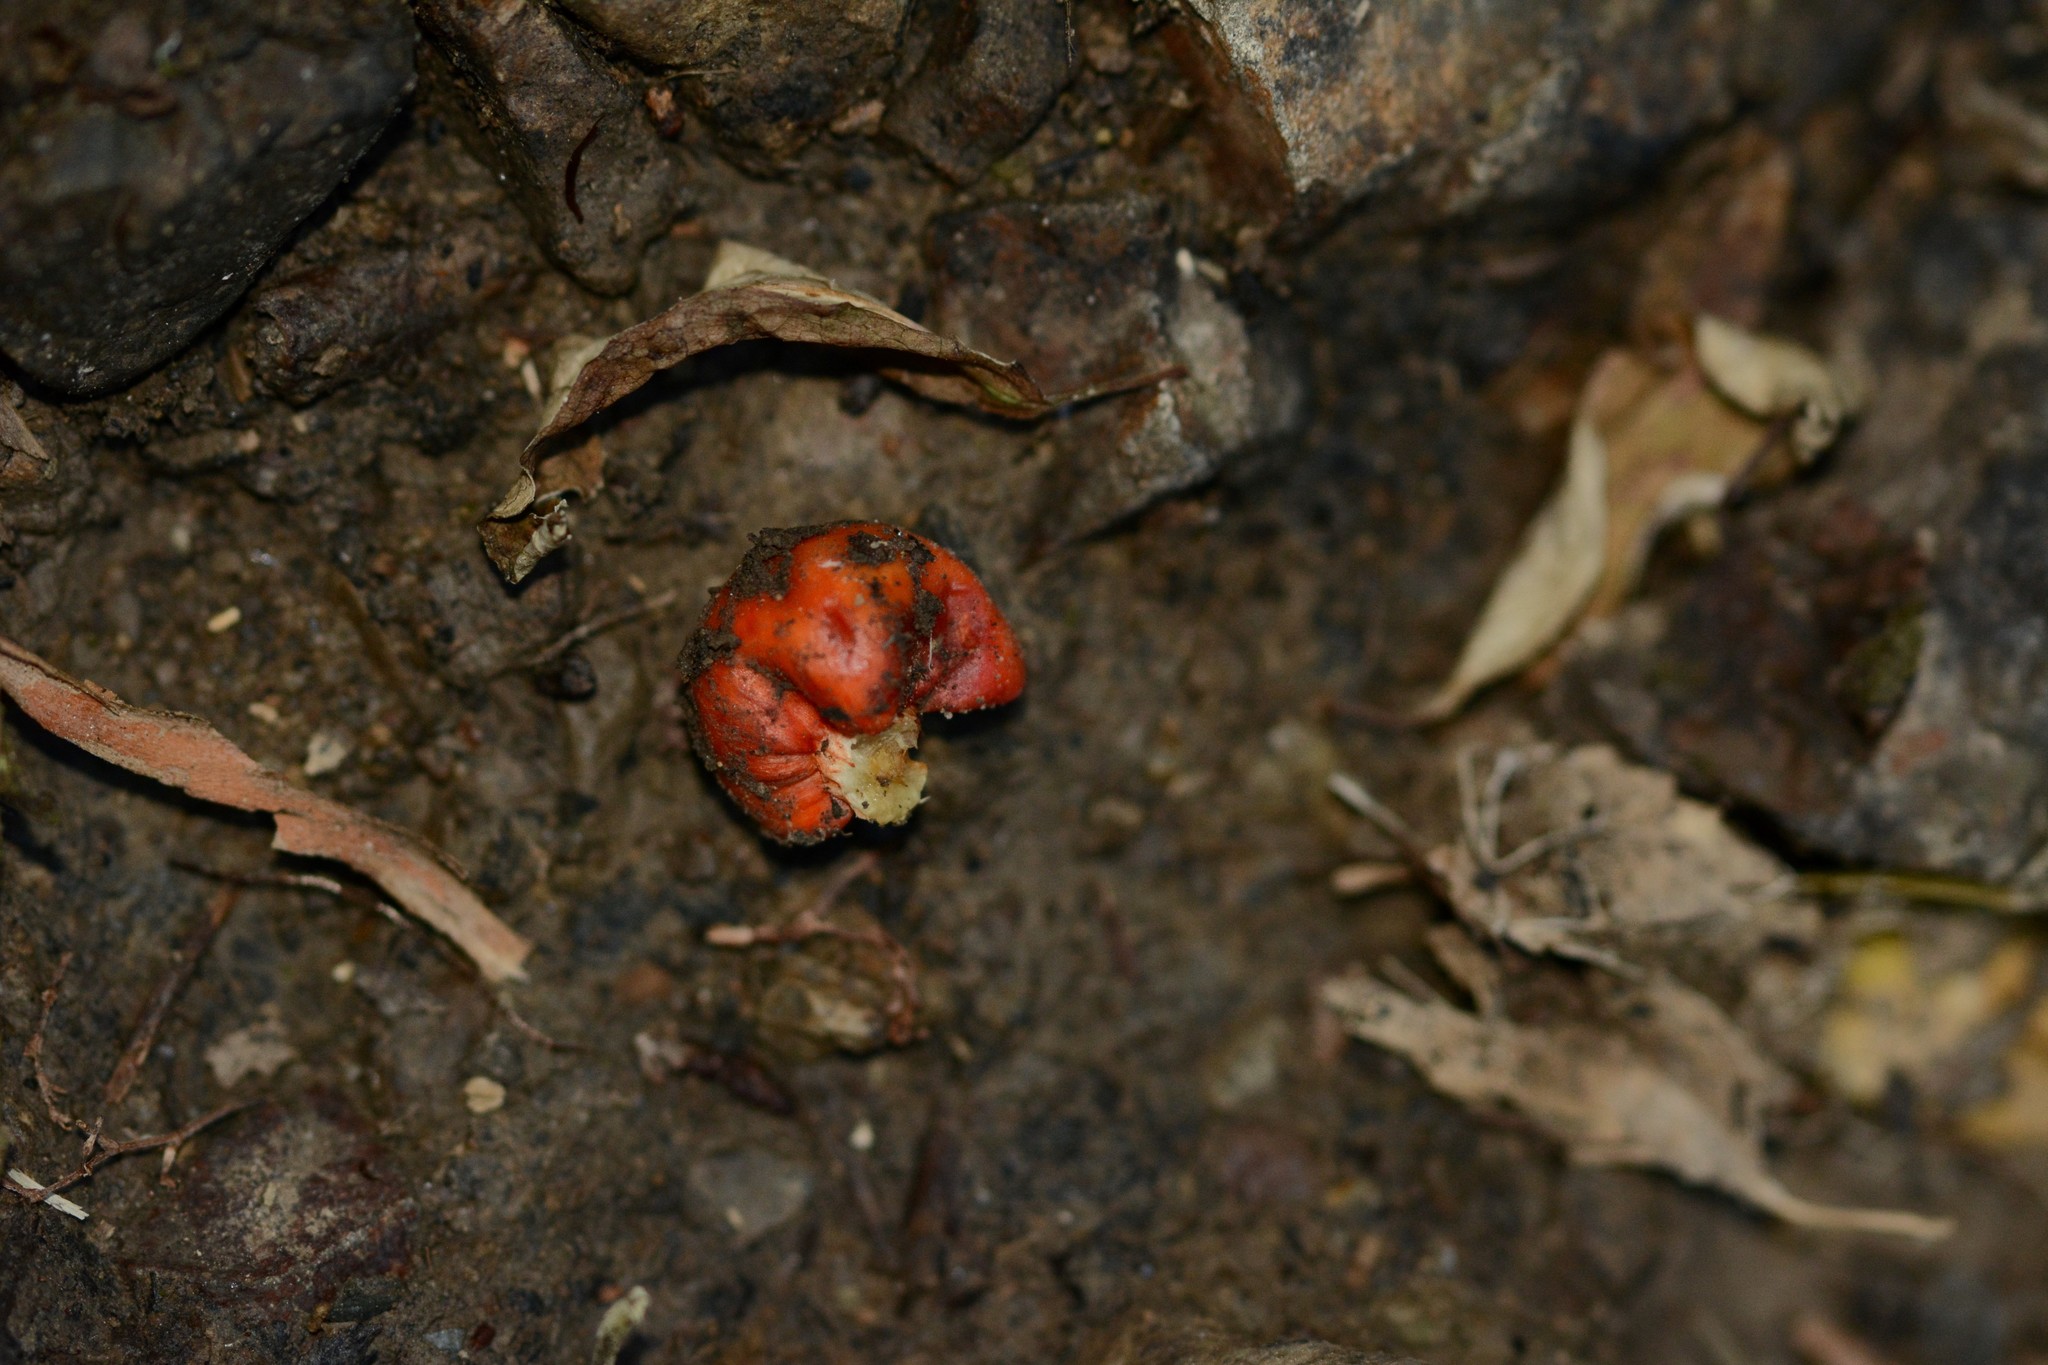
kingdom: Fungi
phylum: Basidiomycota
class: Agaricomycetes
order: Agaricales
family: Strophariaceae
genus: Leratiomyces
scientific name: Leratiomyces erythrocephalus
